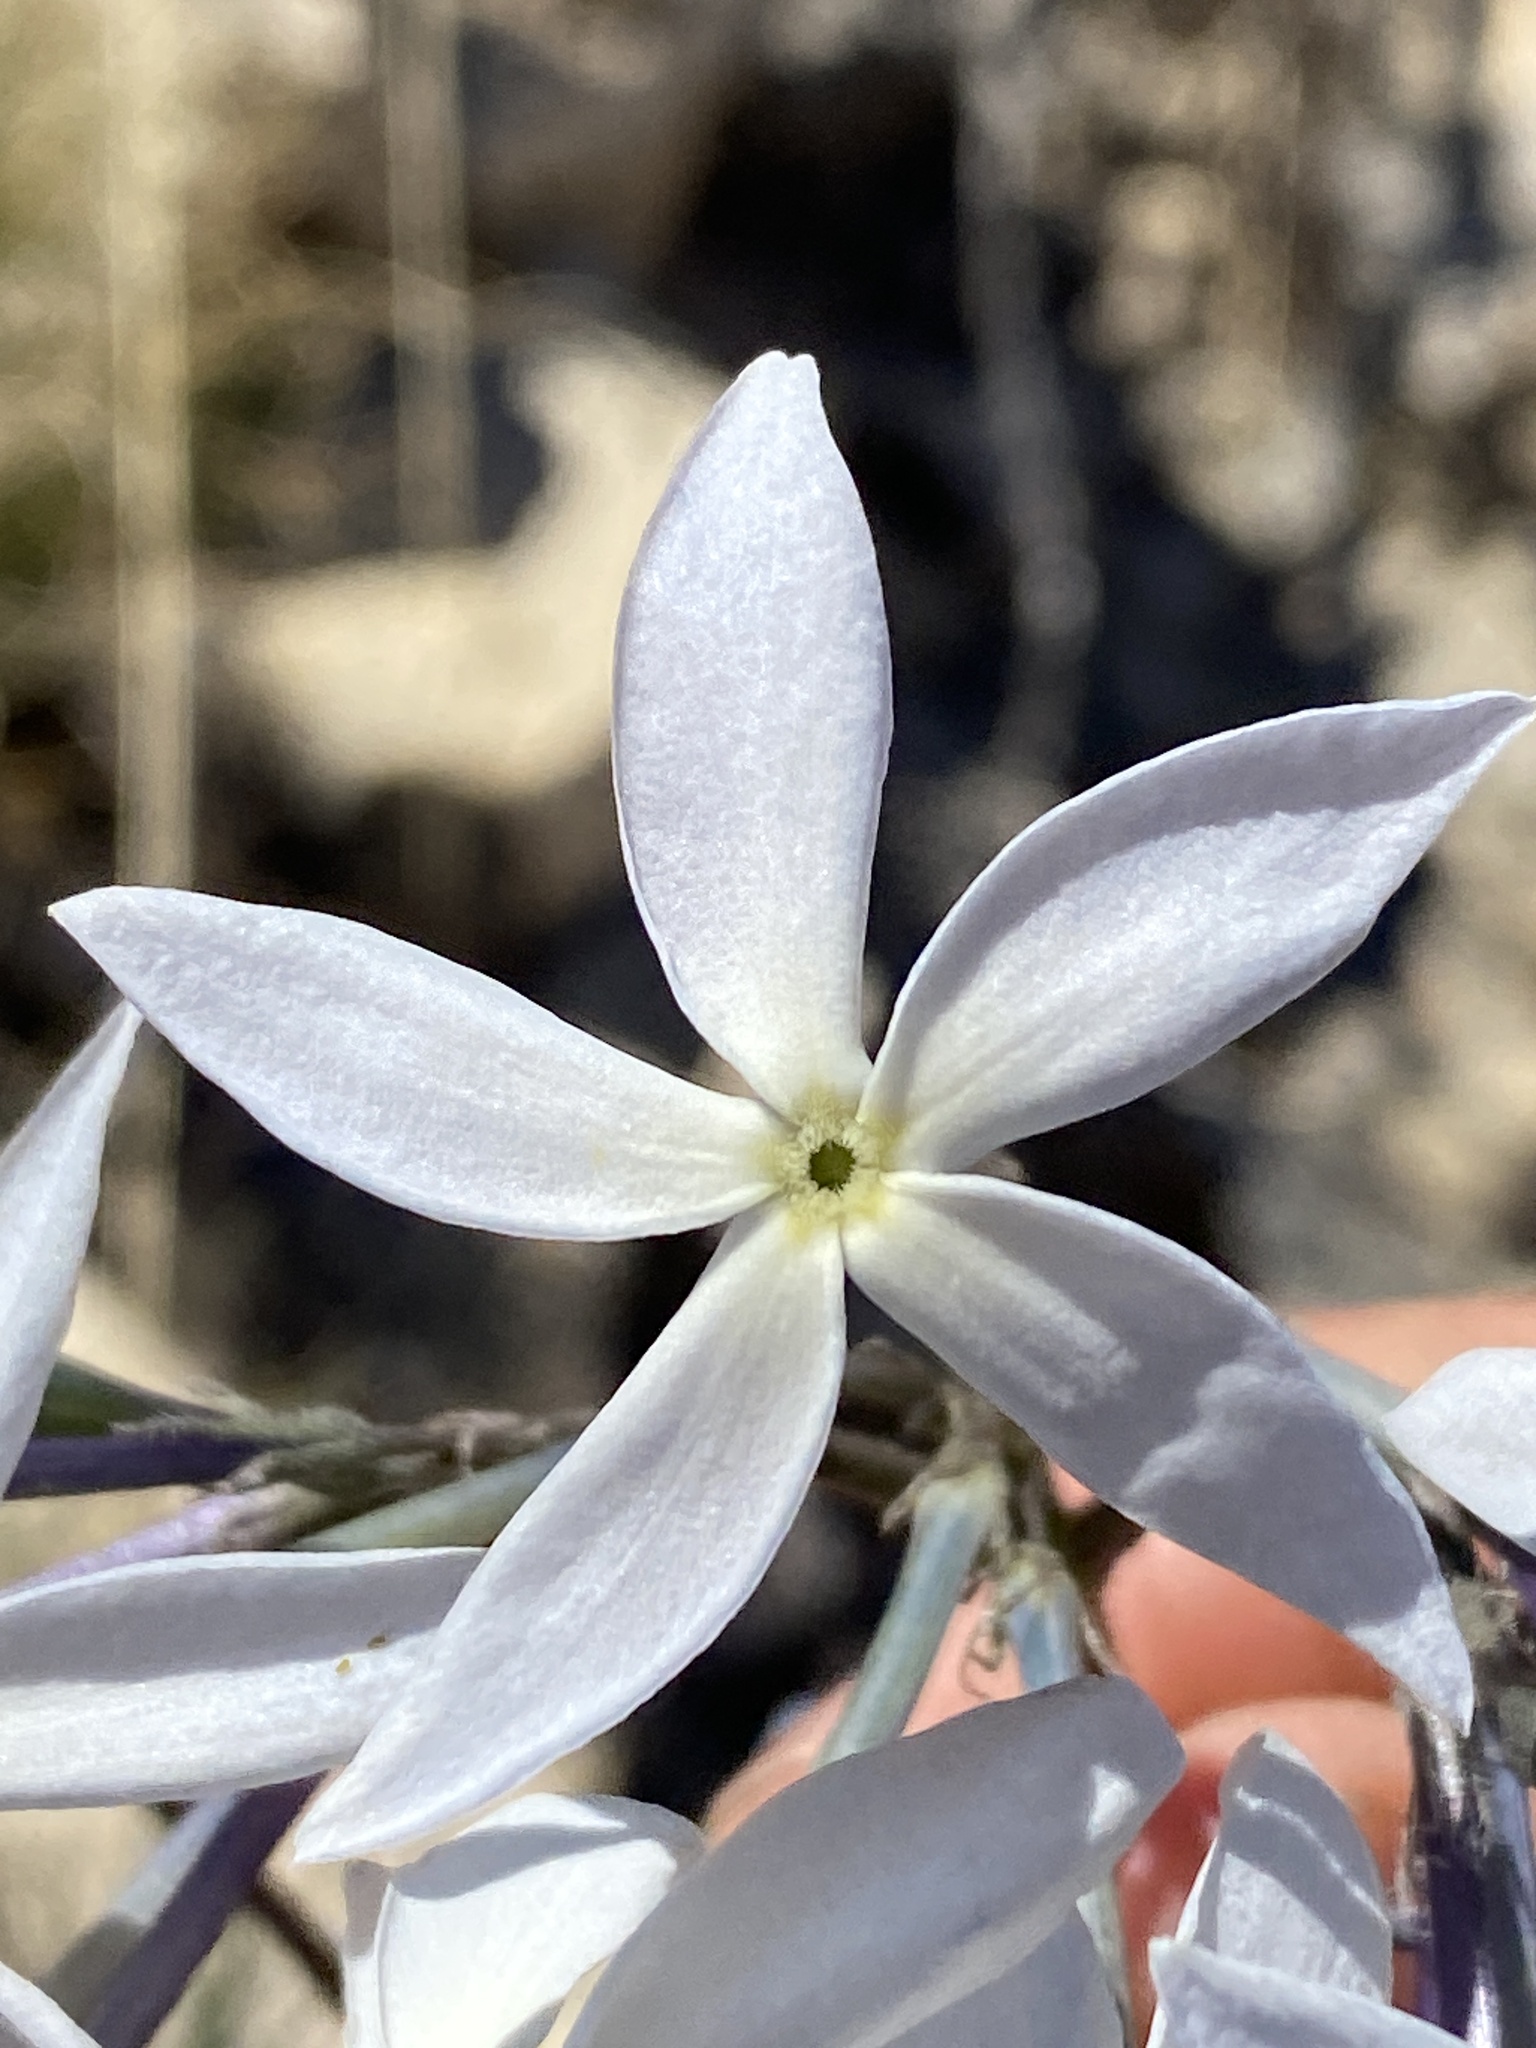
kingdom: Plantae
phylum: Tracheophyta
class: Magnoliopsida
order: Gentianales
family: Apocynaceae
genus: Amsonia
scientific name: Amsonia longiflora
